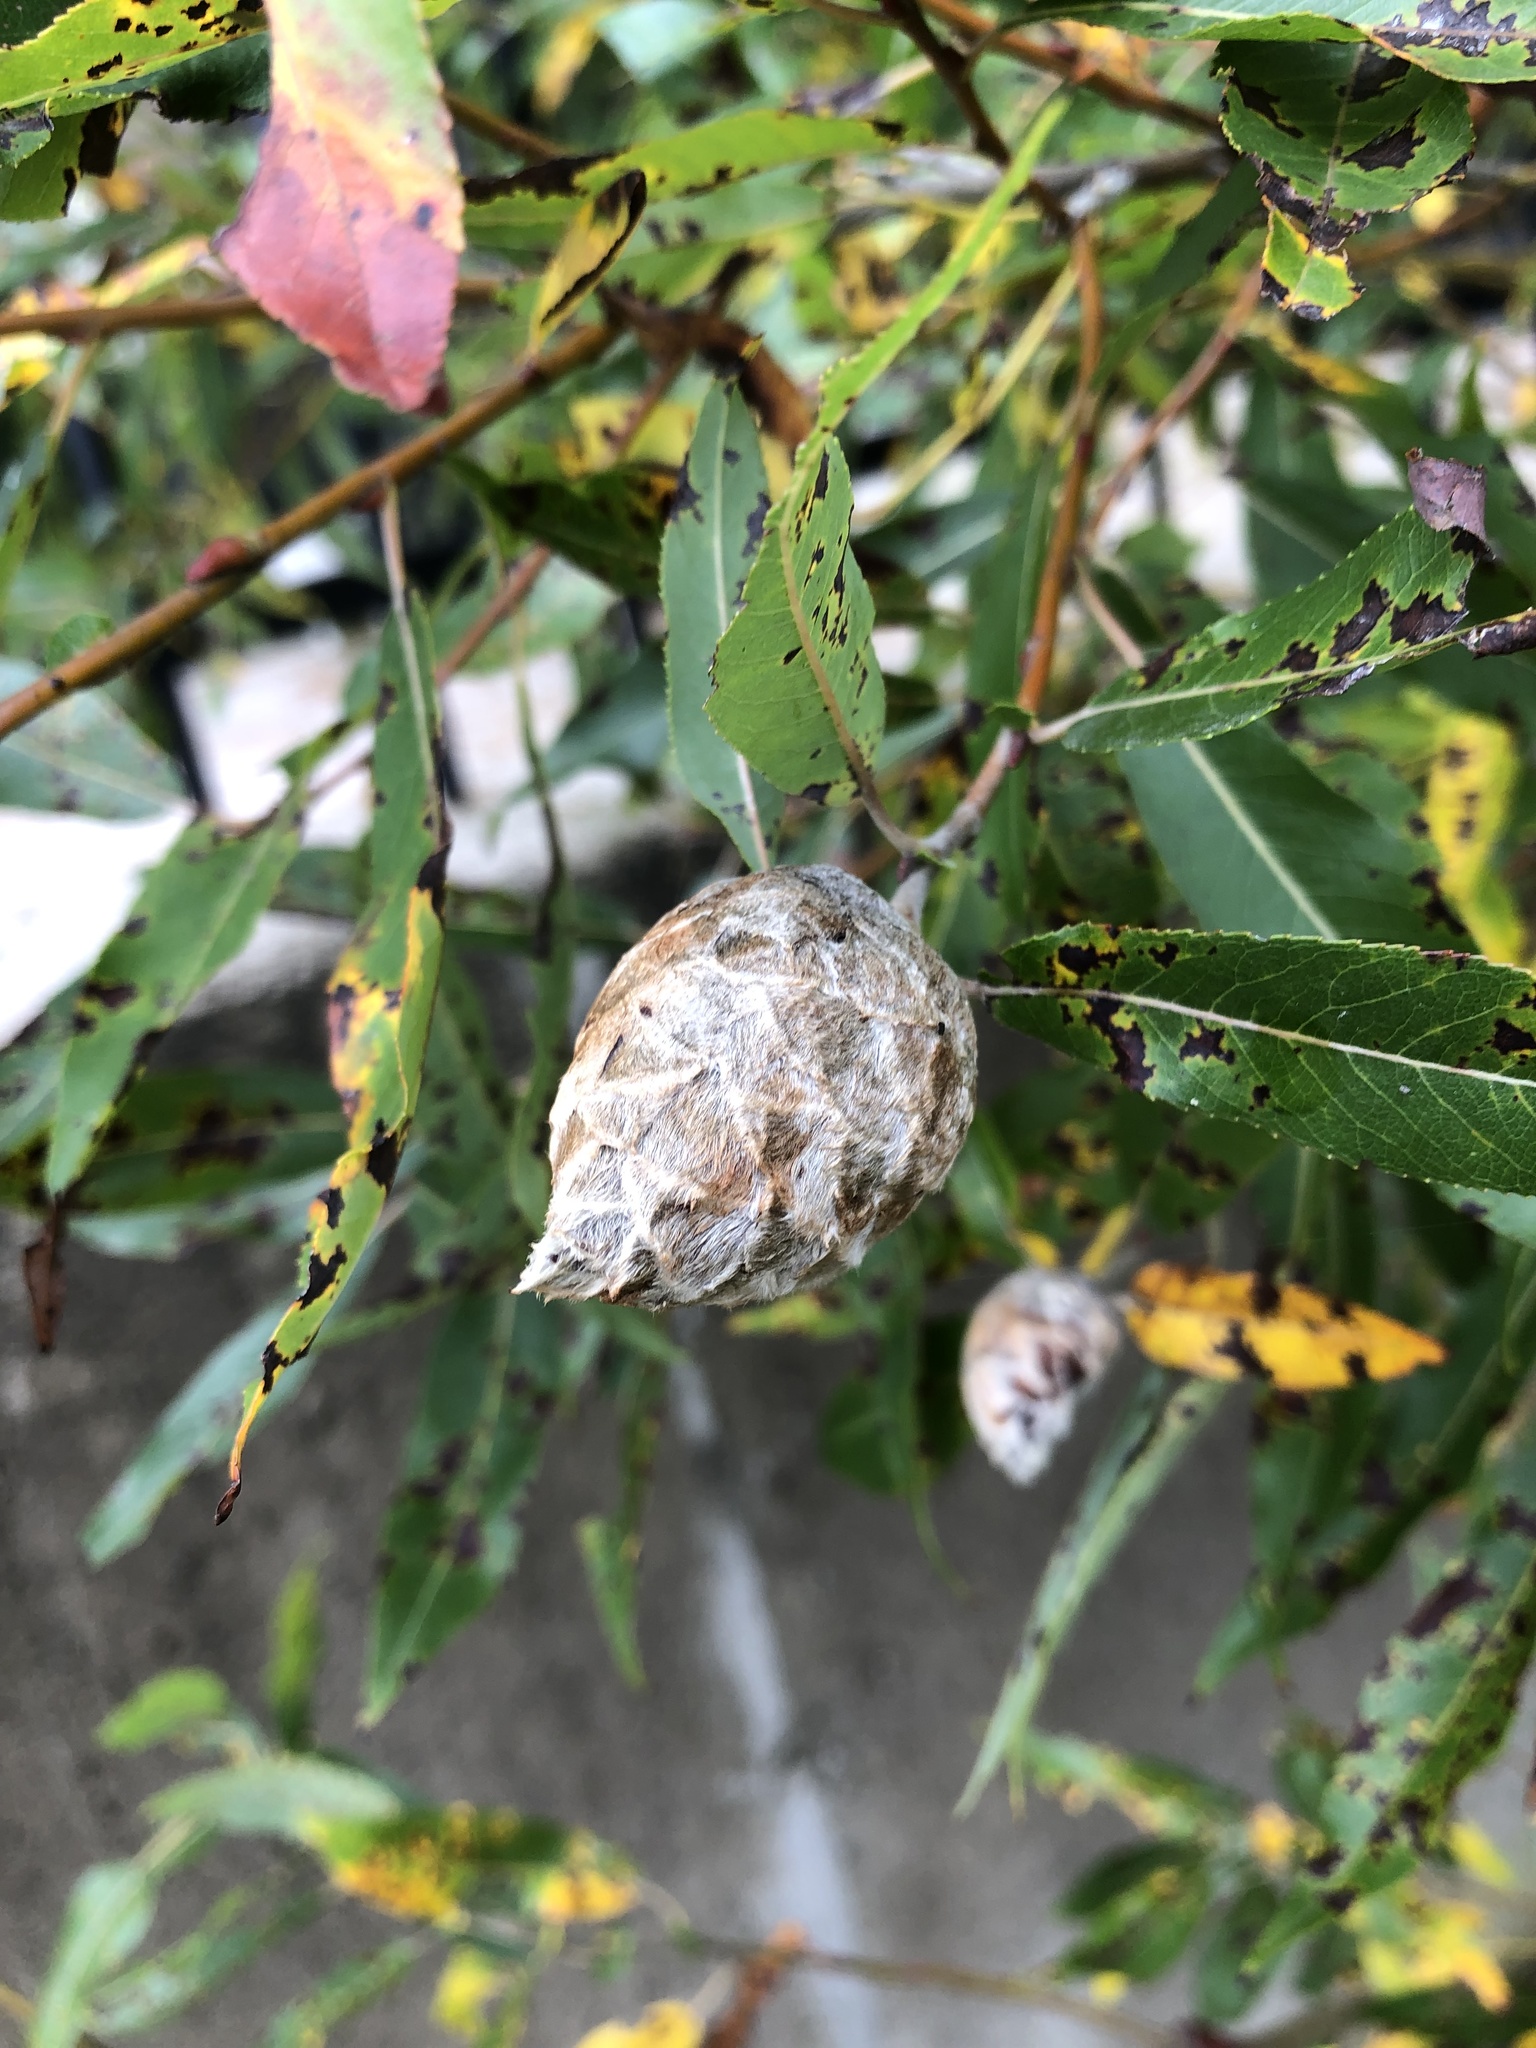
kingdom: Animalia
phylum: Arthropoda
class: Insecta
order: Diptera
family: Cecidomyiidae
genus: Rabdophaga
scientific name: Rabdophaga strobiloides
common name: Willow pinecone gall midge
